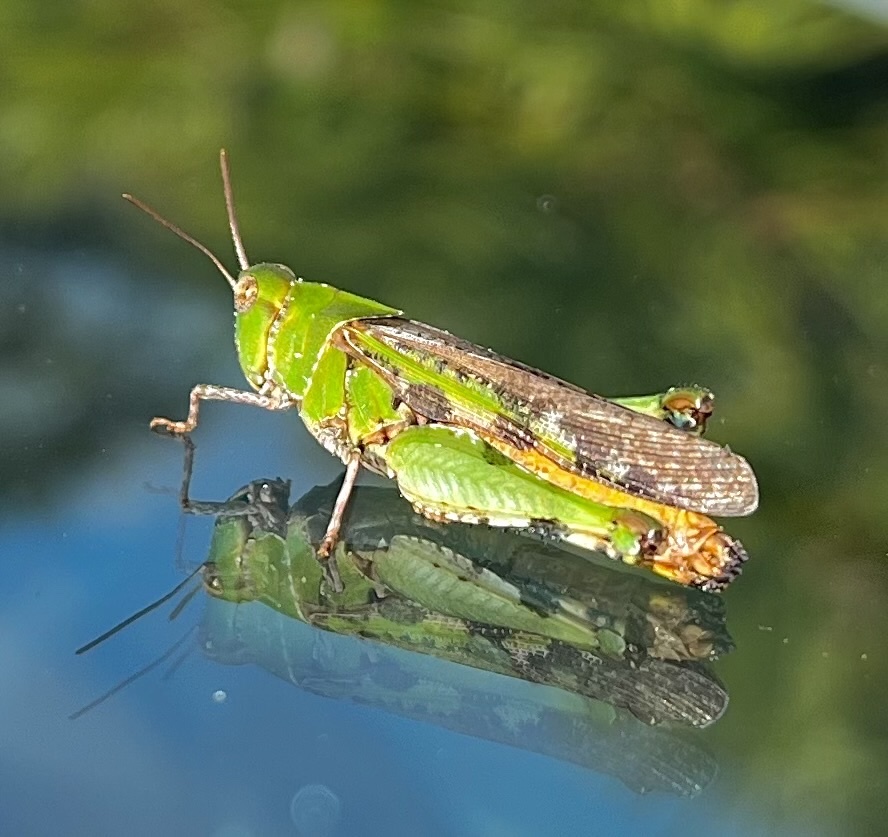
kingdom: Animalia
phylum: Arthropoda
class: Insecta
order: Orthoptera
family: Acrididae
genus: Chortophaga
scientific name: Chortophaga australior
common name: Southern green-striped grasshopper
